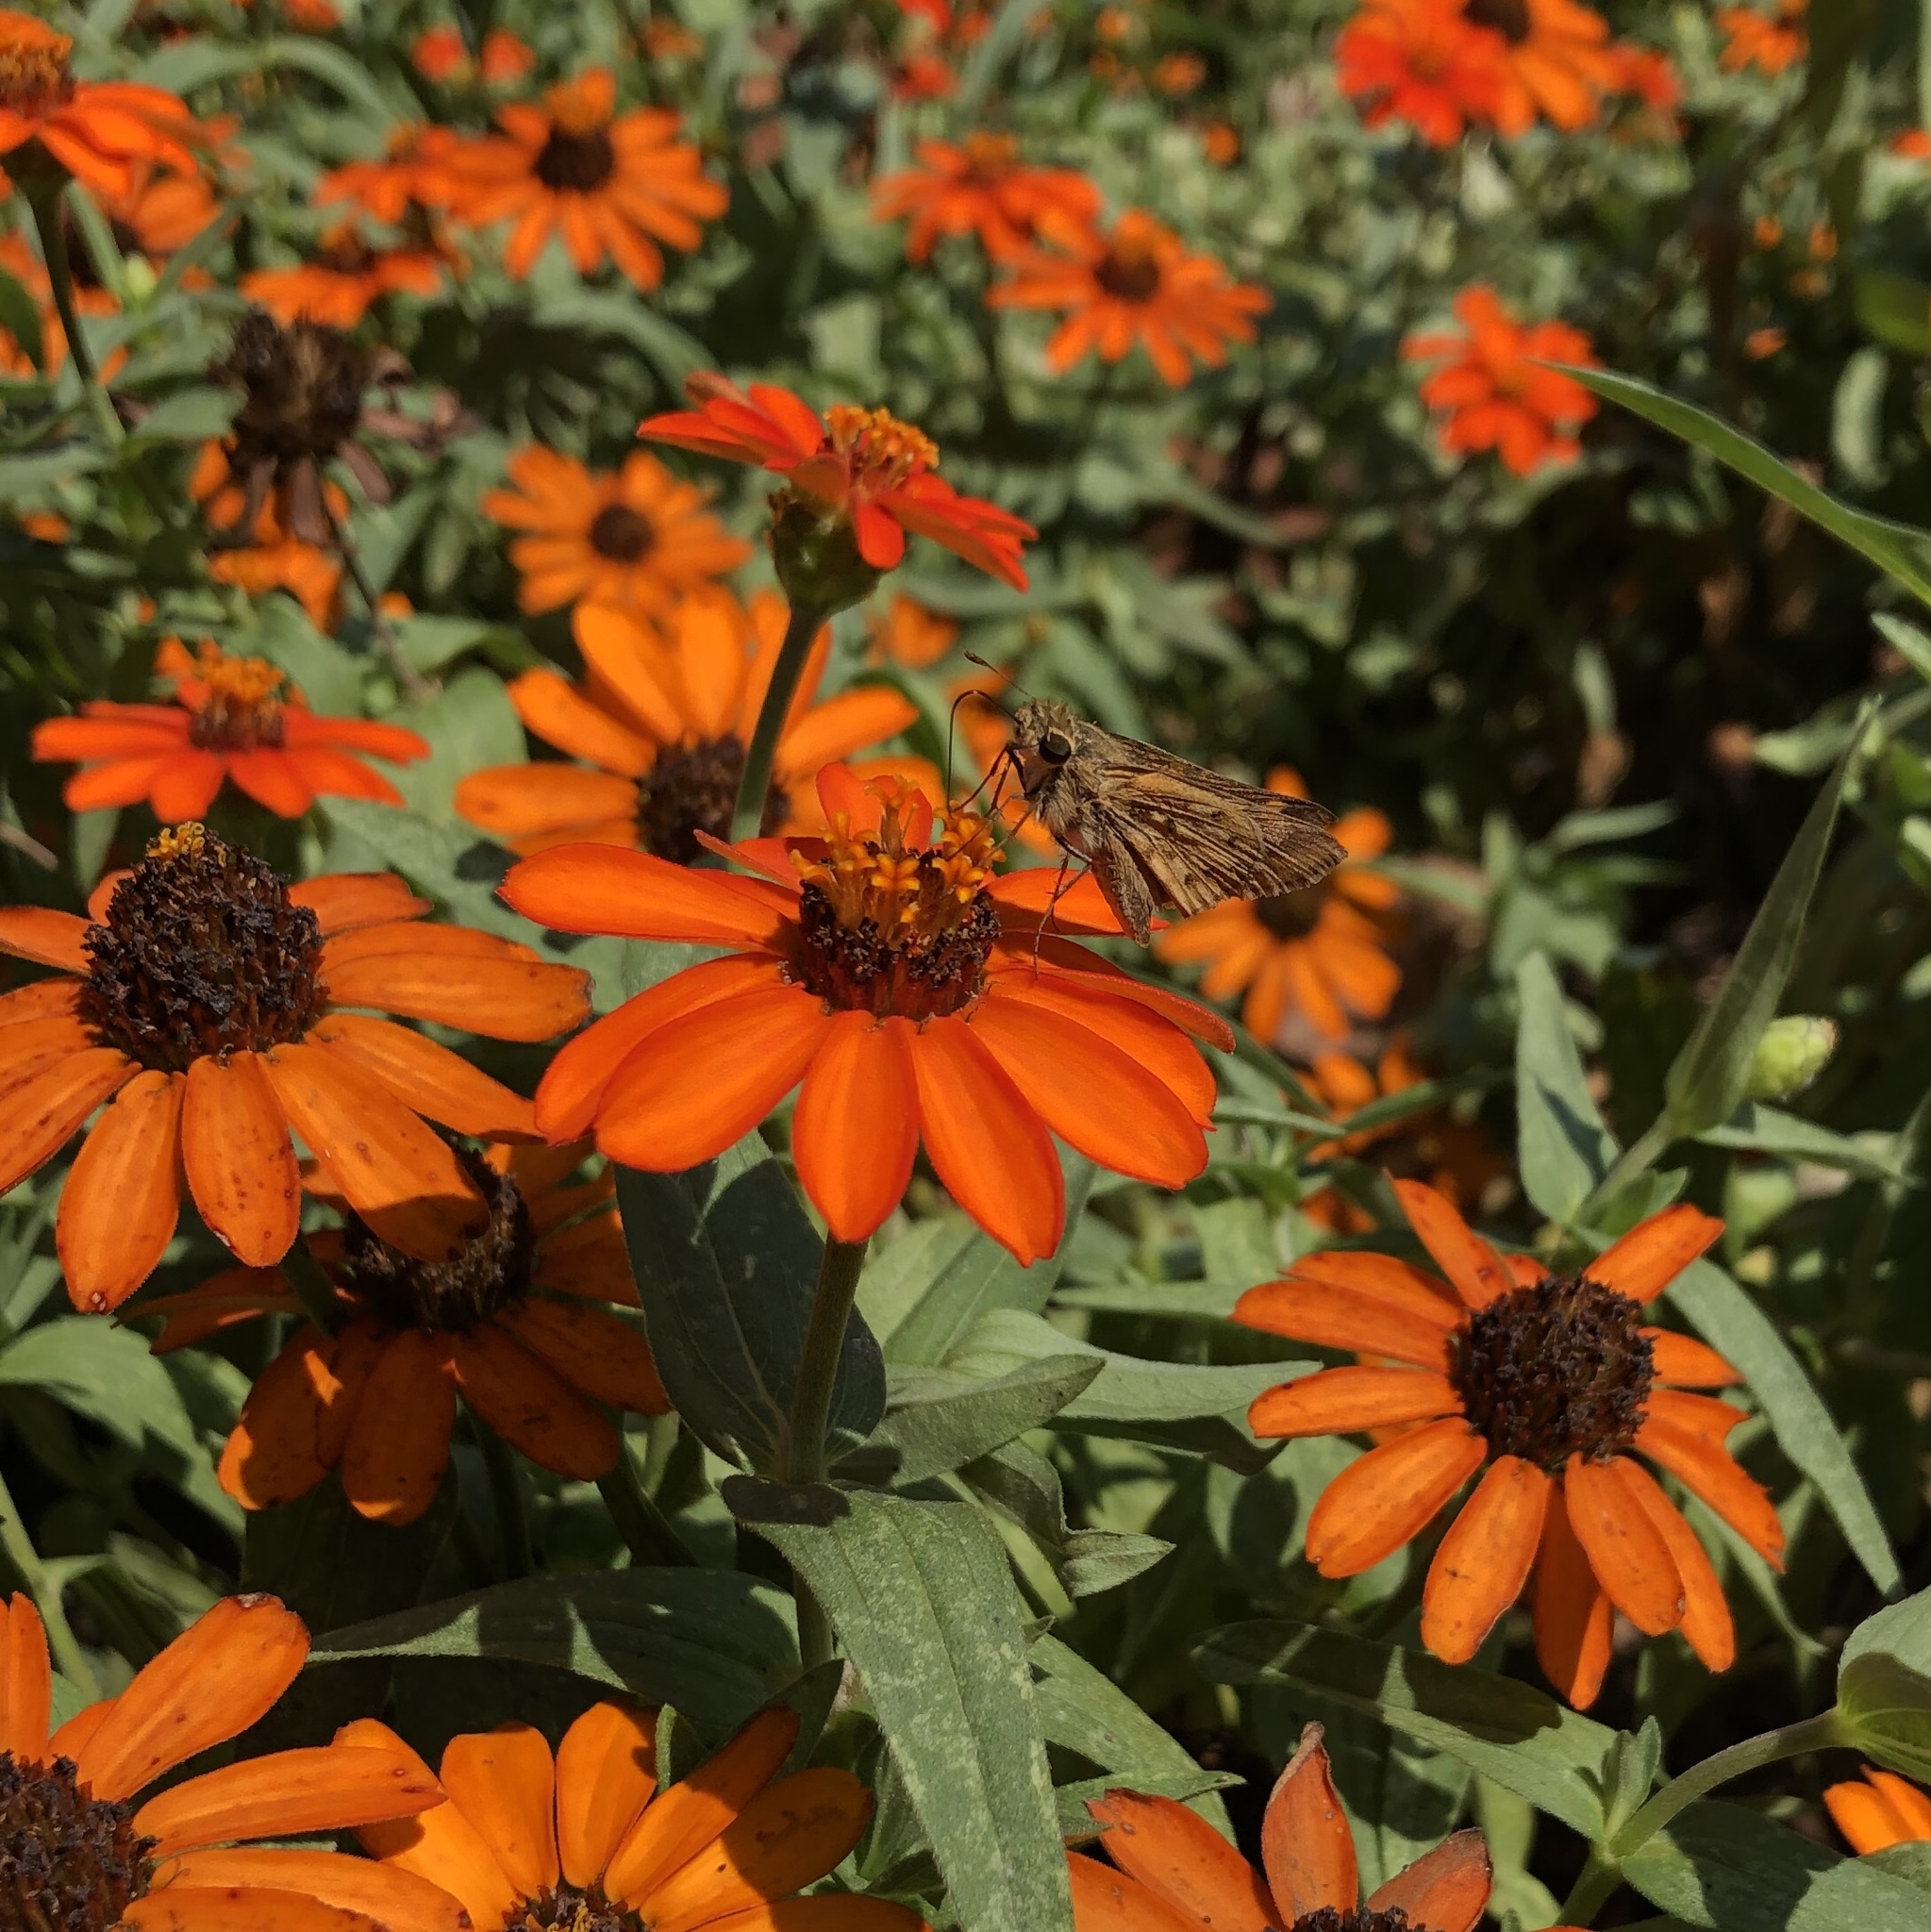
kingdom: Animalia
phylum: Arthropoda
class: Insecta
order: Lepidoptera
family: Hesperiidae
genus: Hylephila
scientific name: Hylephila phyleus
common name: Fiery skipper
